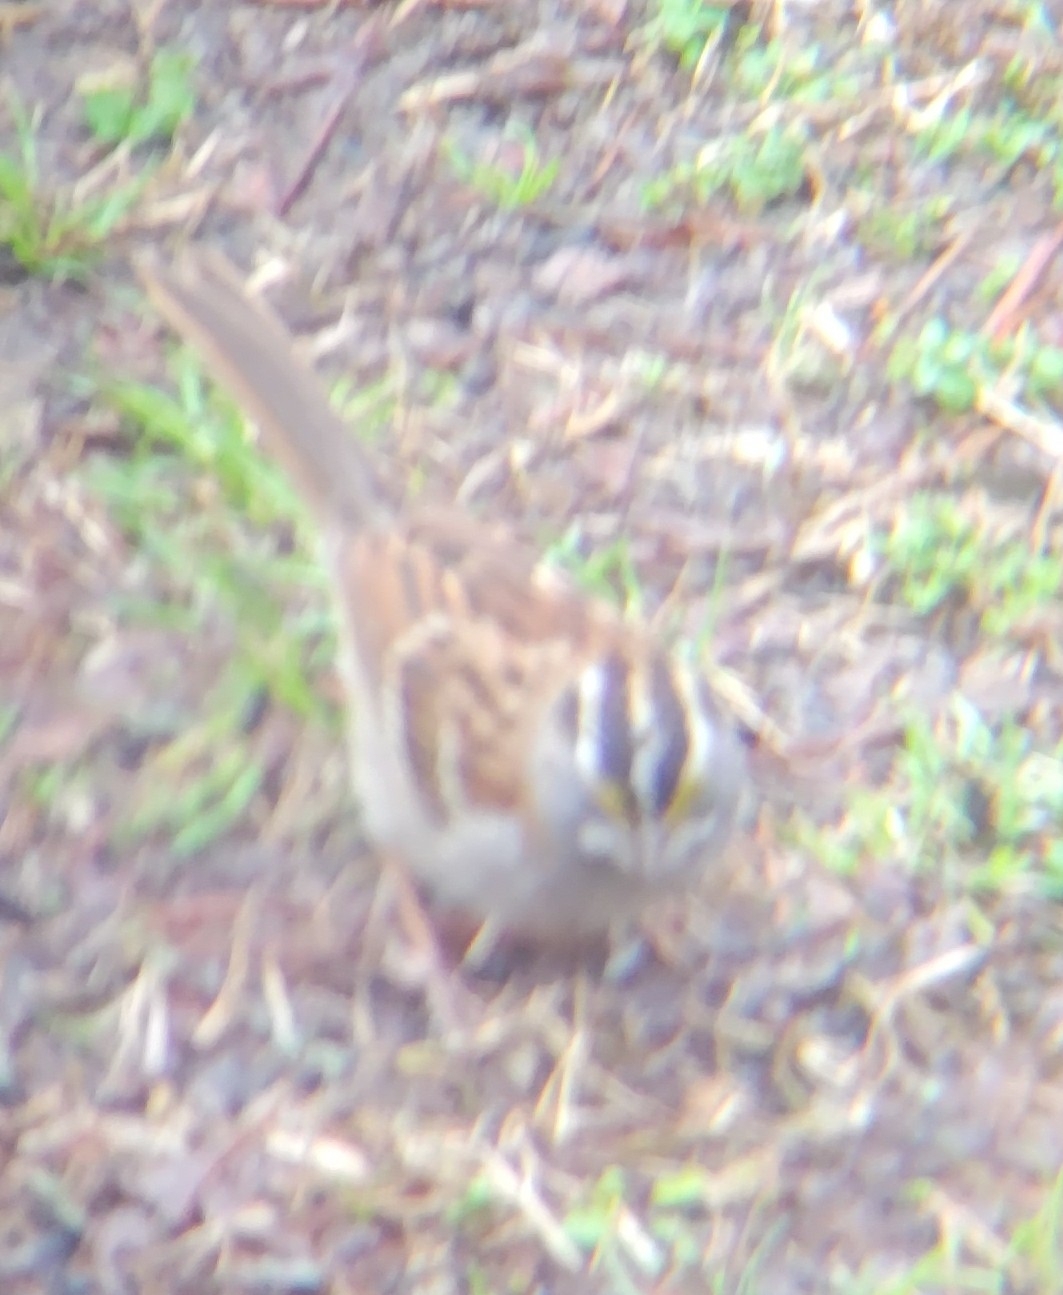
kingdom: Animalia
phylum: Chordata
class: Aves
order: Passeriformes
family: Passerellidae
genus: Zonotrichia
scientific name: Zonotrichia albicollis
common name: White-throated sparrow
